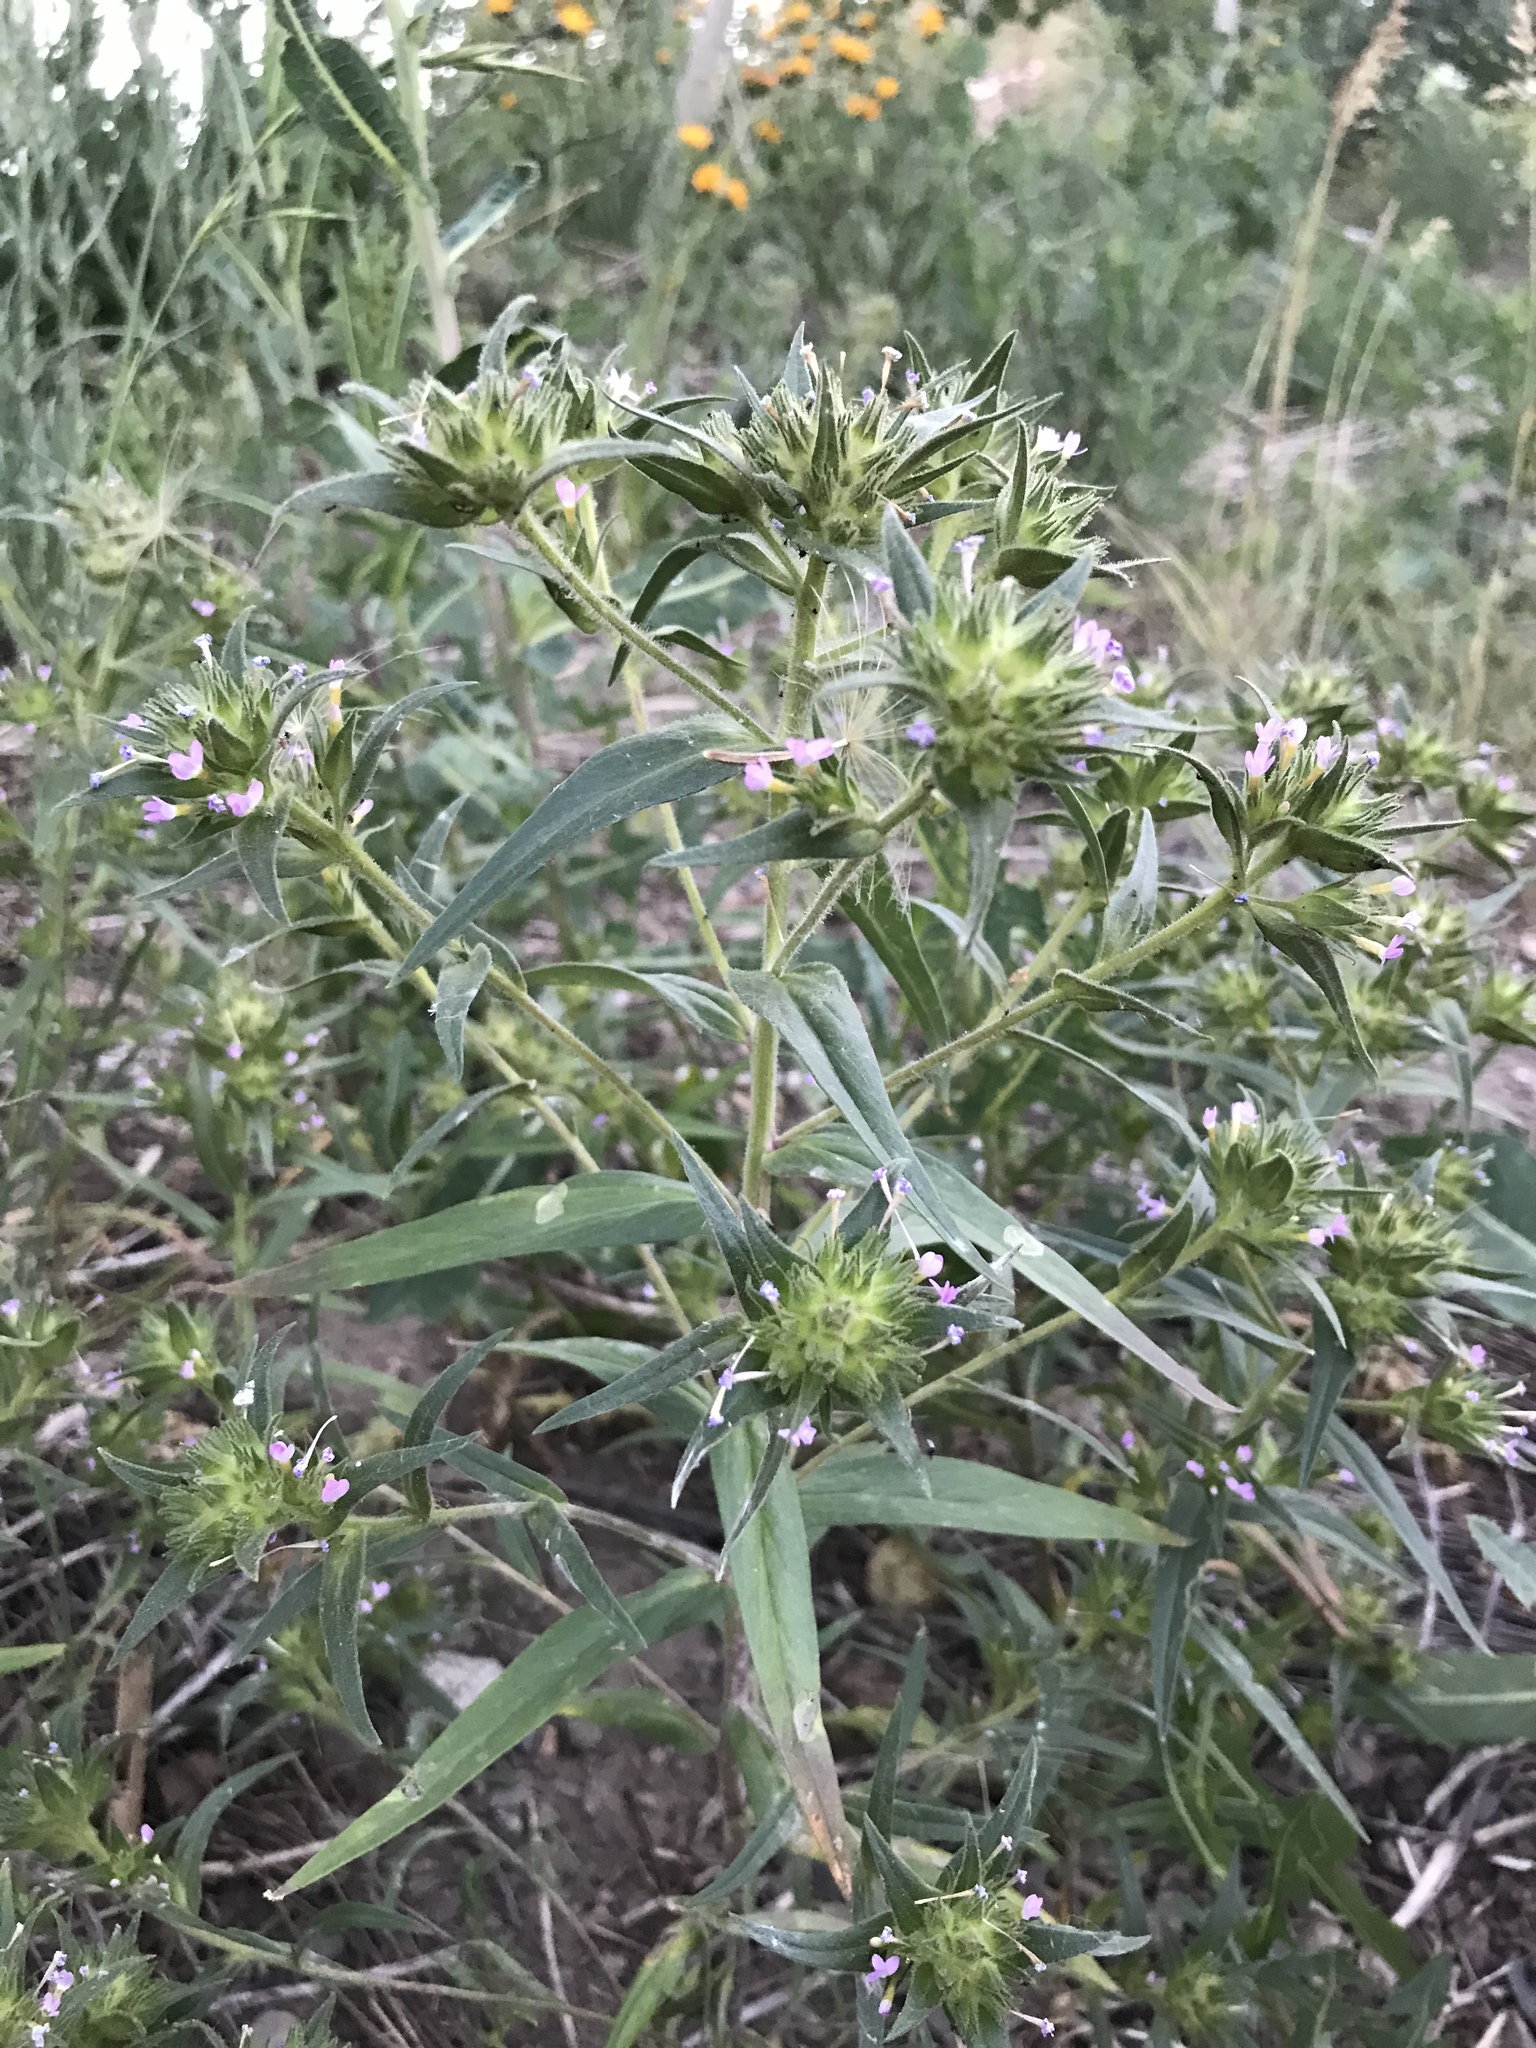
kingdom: Plantae
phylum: Tracheophyta
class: Magnoliopsida
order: Ericales
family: Polemoniaceae
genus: Collomia
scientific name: Collomia linearis
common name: Tiny trumpet
